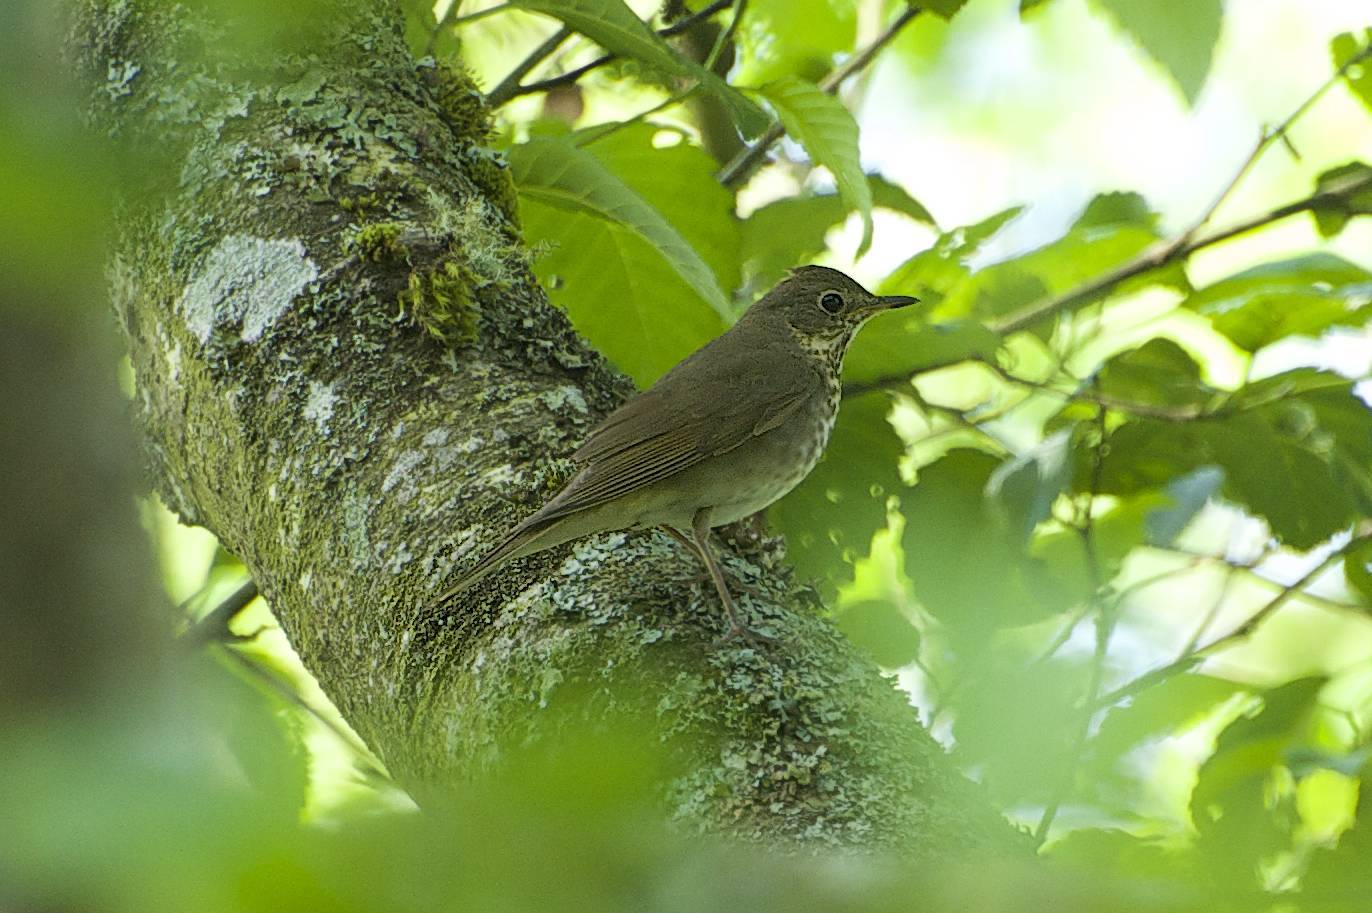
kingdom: Animalia
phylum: Chordata
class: Aves
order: Passeriformes
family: Turdidae
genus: Catharus
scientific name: Catharus ustulatus
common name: Swainson's thrush
